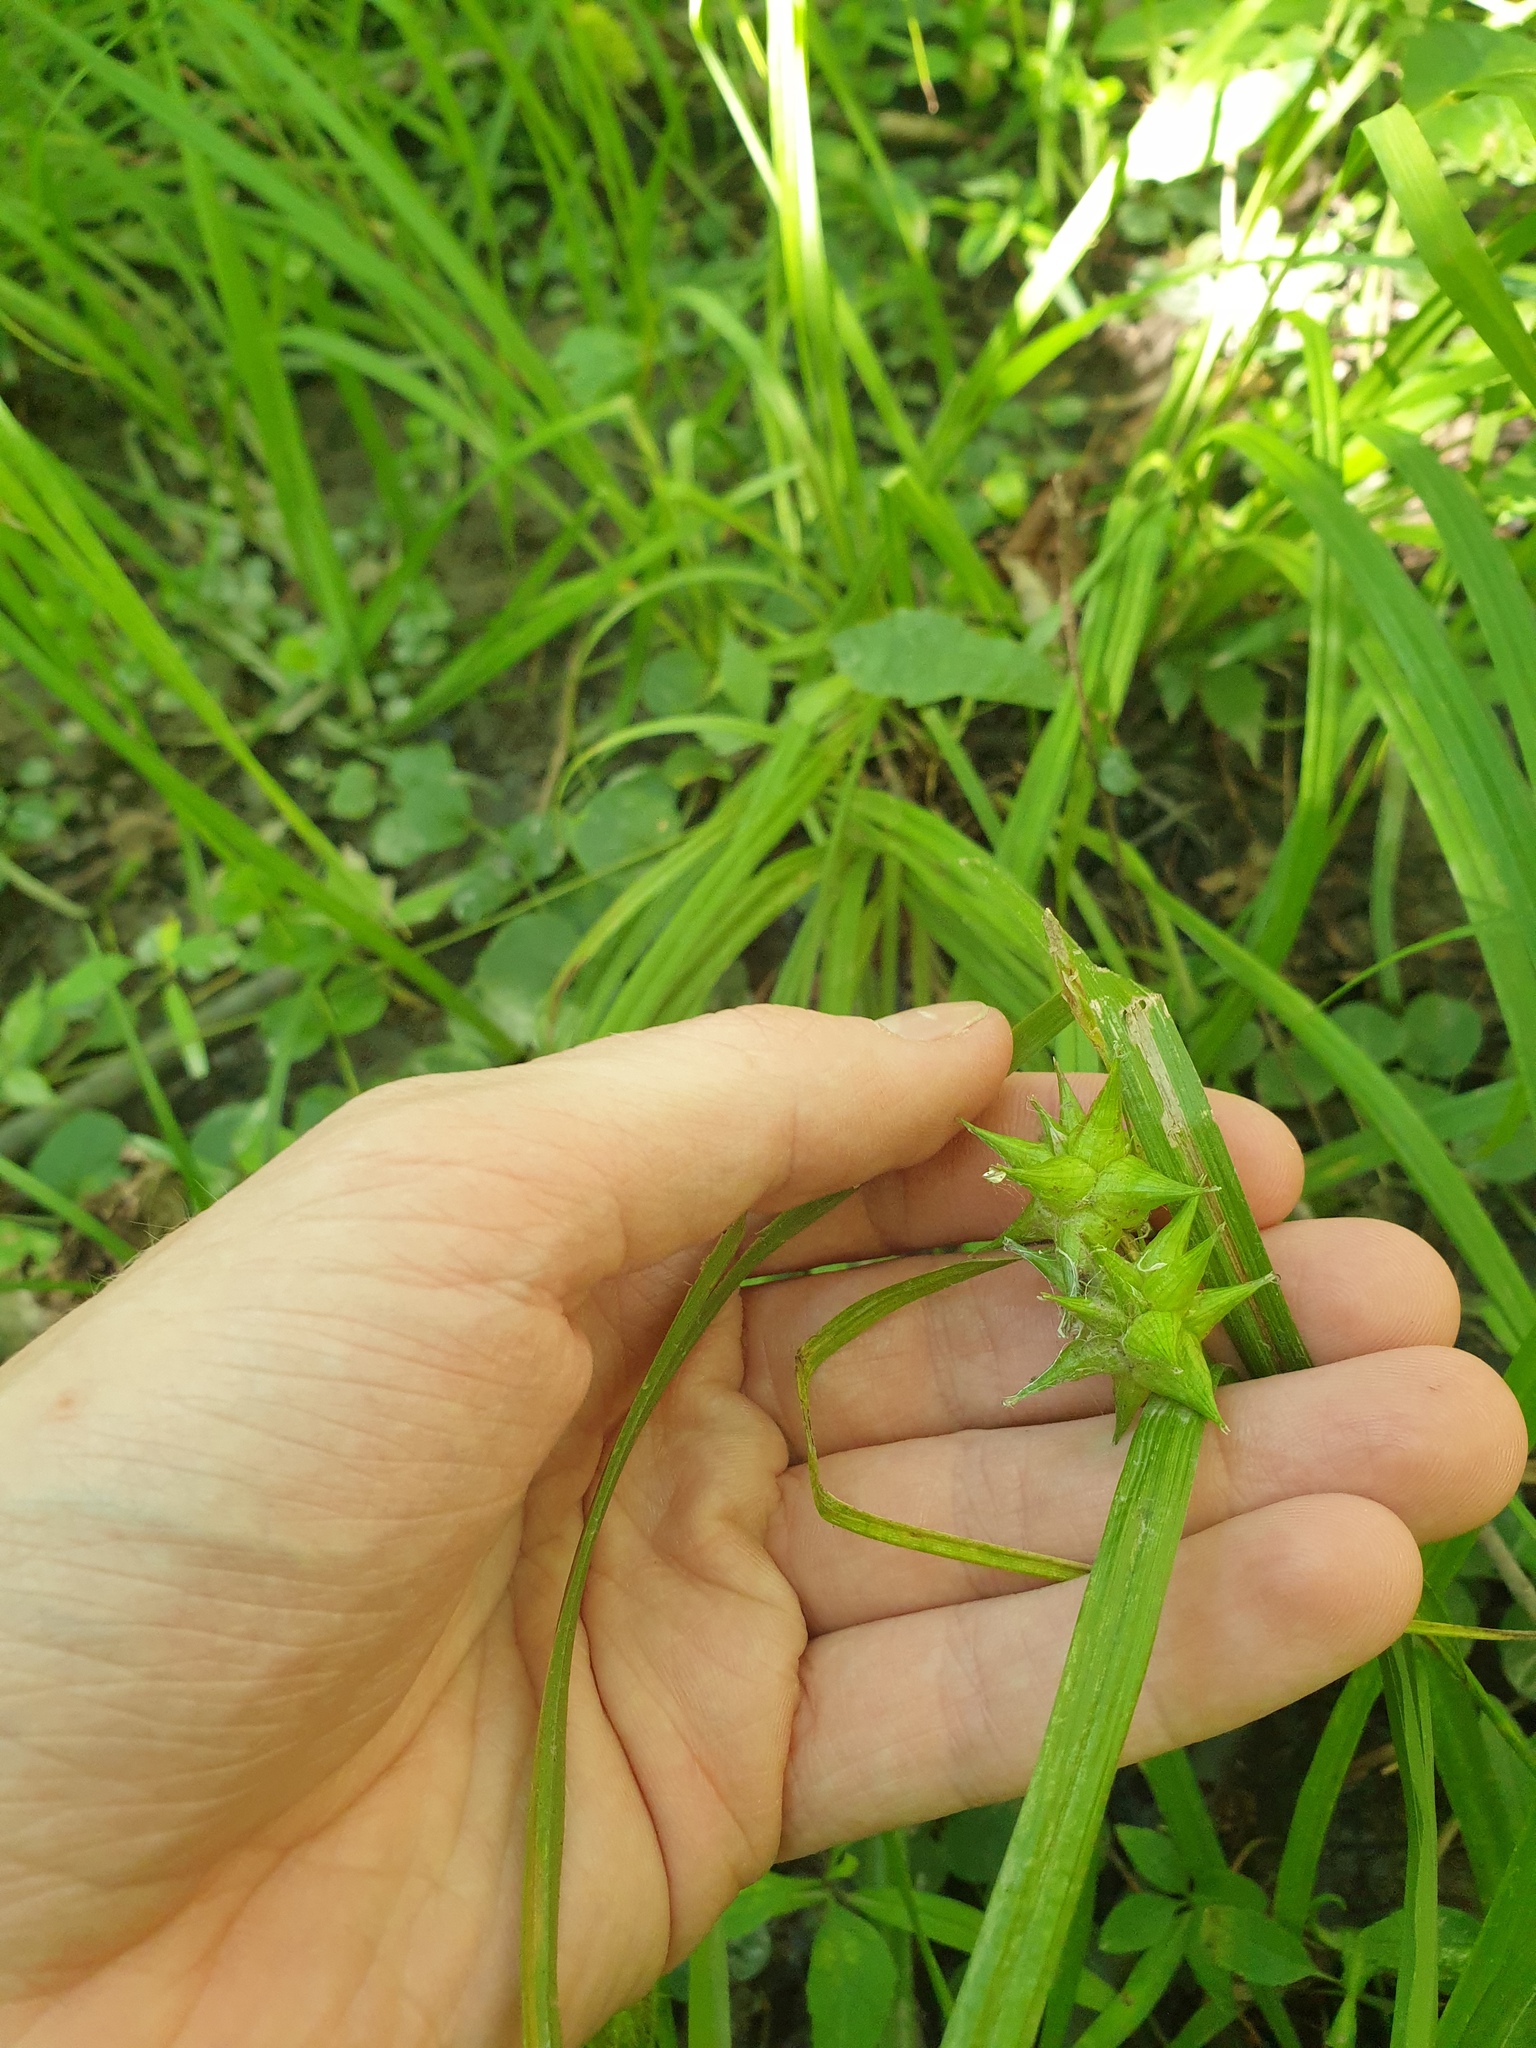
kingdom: Plantae
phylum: Tracheophyta
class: Liliopsida
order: Poales
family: Cyperaceae
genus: Carex
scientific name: Carex grayi
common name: Asa gray's sedge
